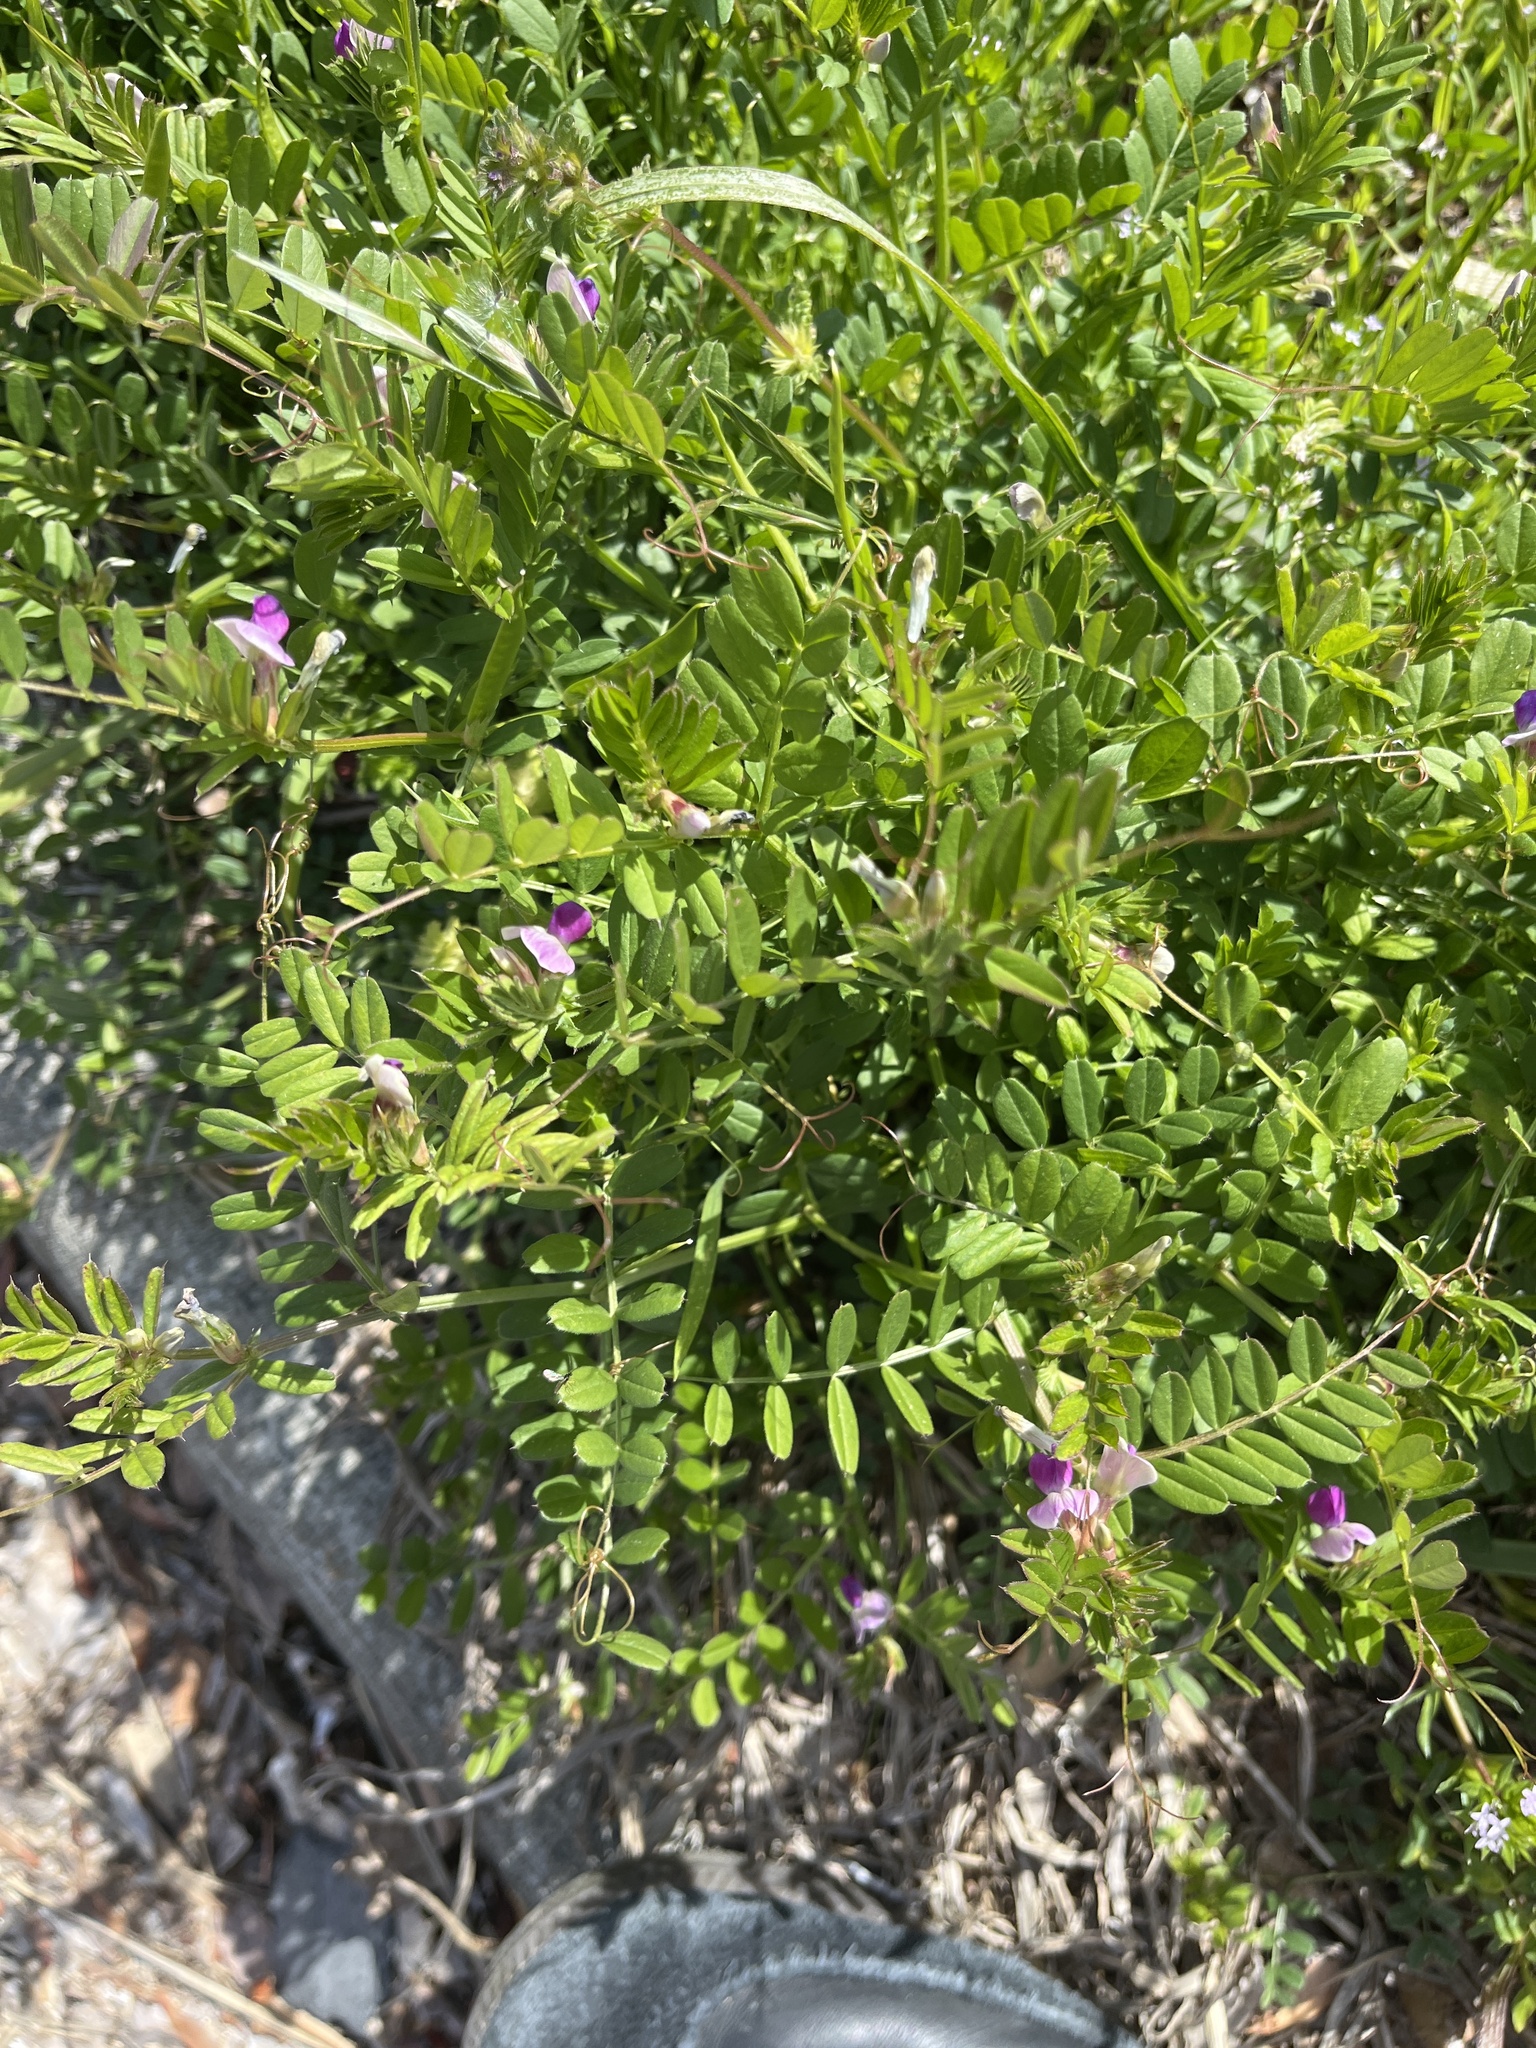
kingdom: Plantae
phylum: Tracheophyta
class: Magnoliopsida
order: Fabales
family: Fabaceae
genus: Vicia
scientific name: Vicia sativa
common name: Garden vetch
